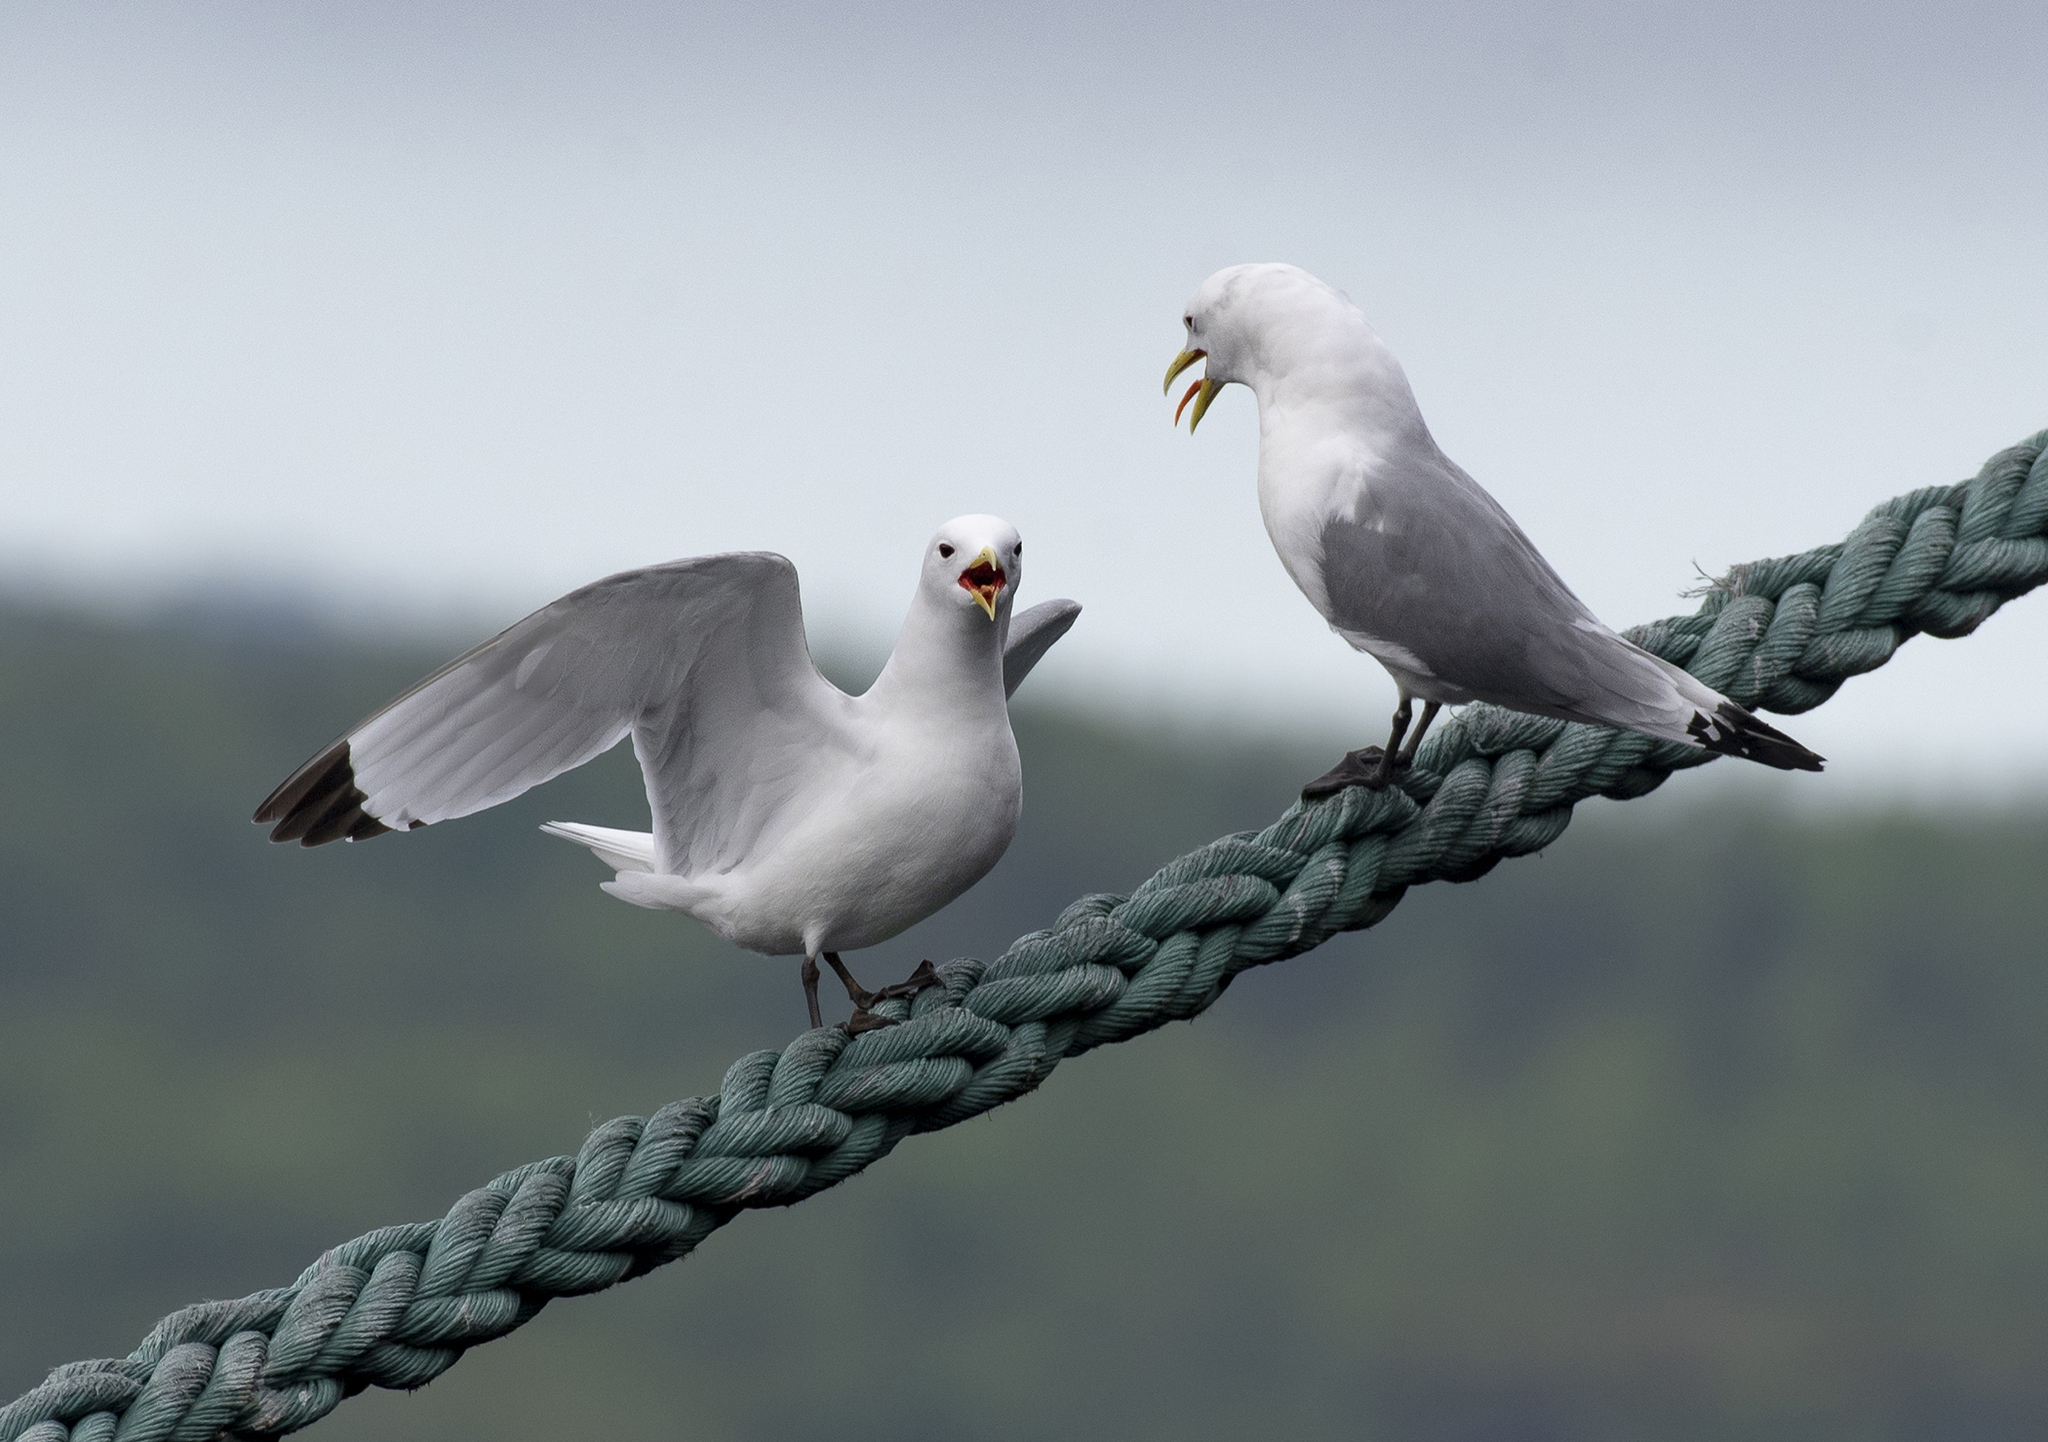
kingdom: Animalia
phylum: Chordata
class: Aves
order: Charadriiformes
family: Laridae
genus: Rissa
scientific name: Rissa tridactyla
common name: Black-legged kittiwake
